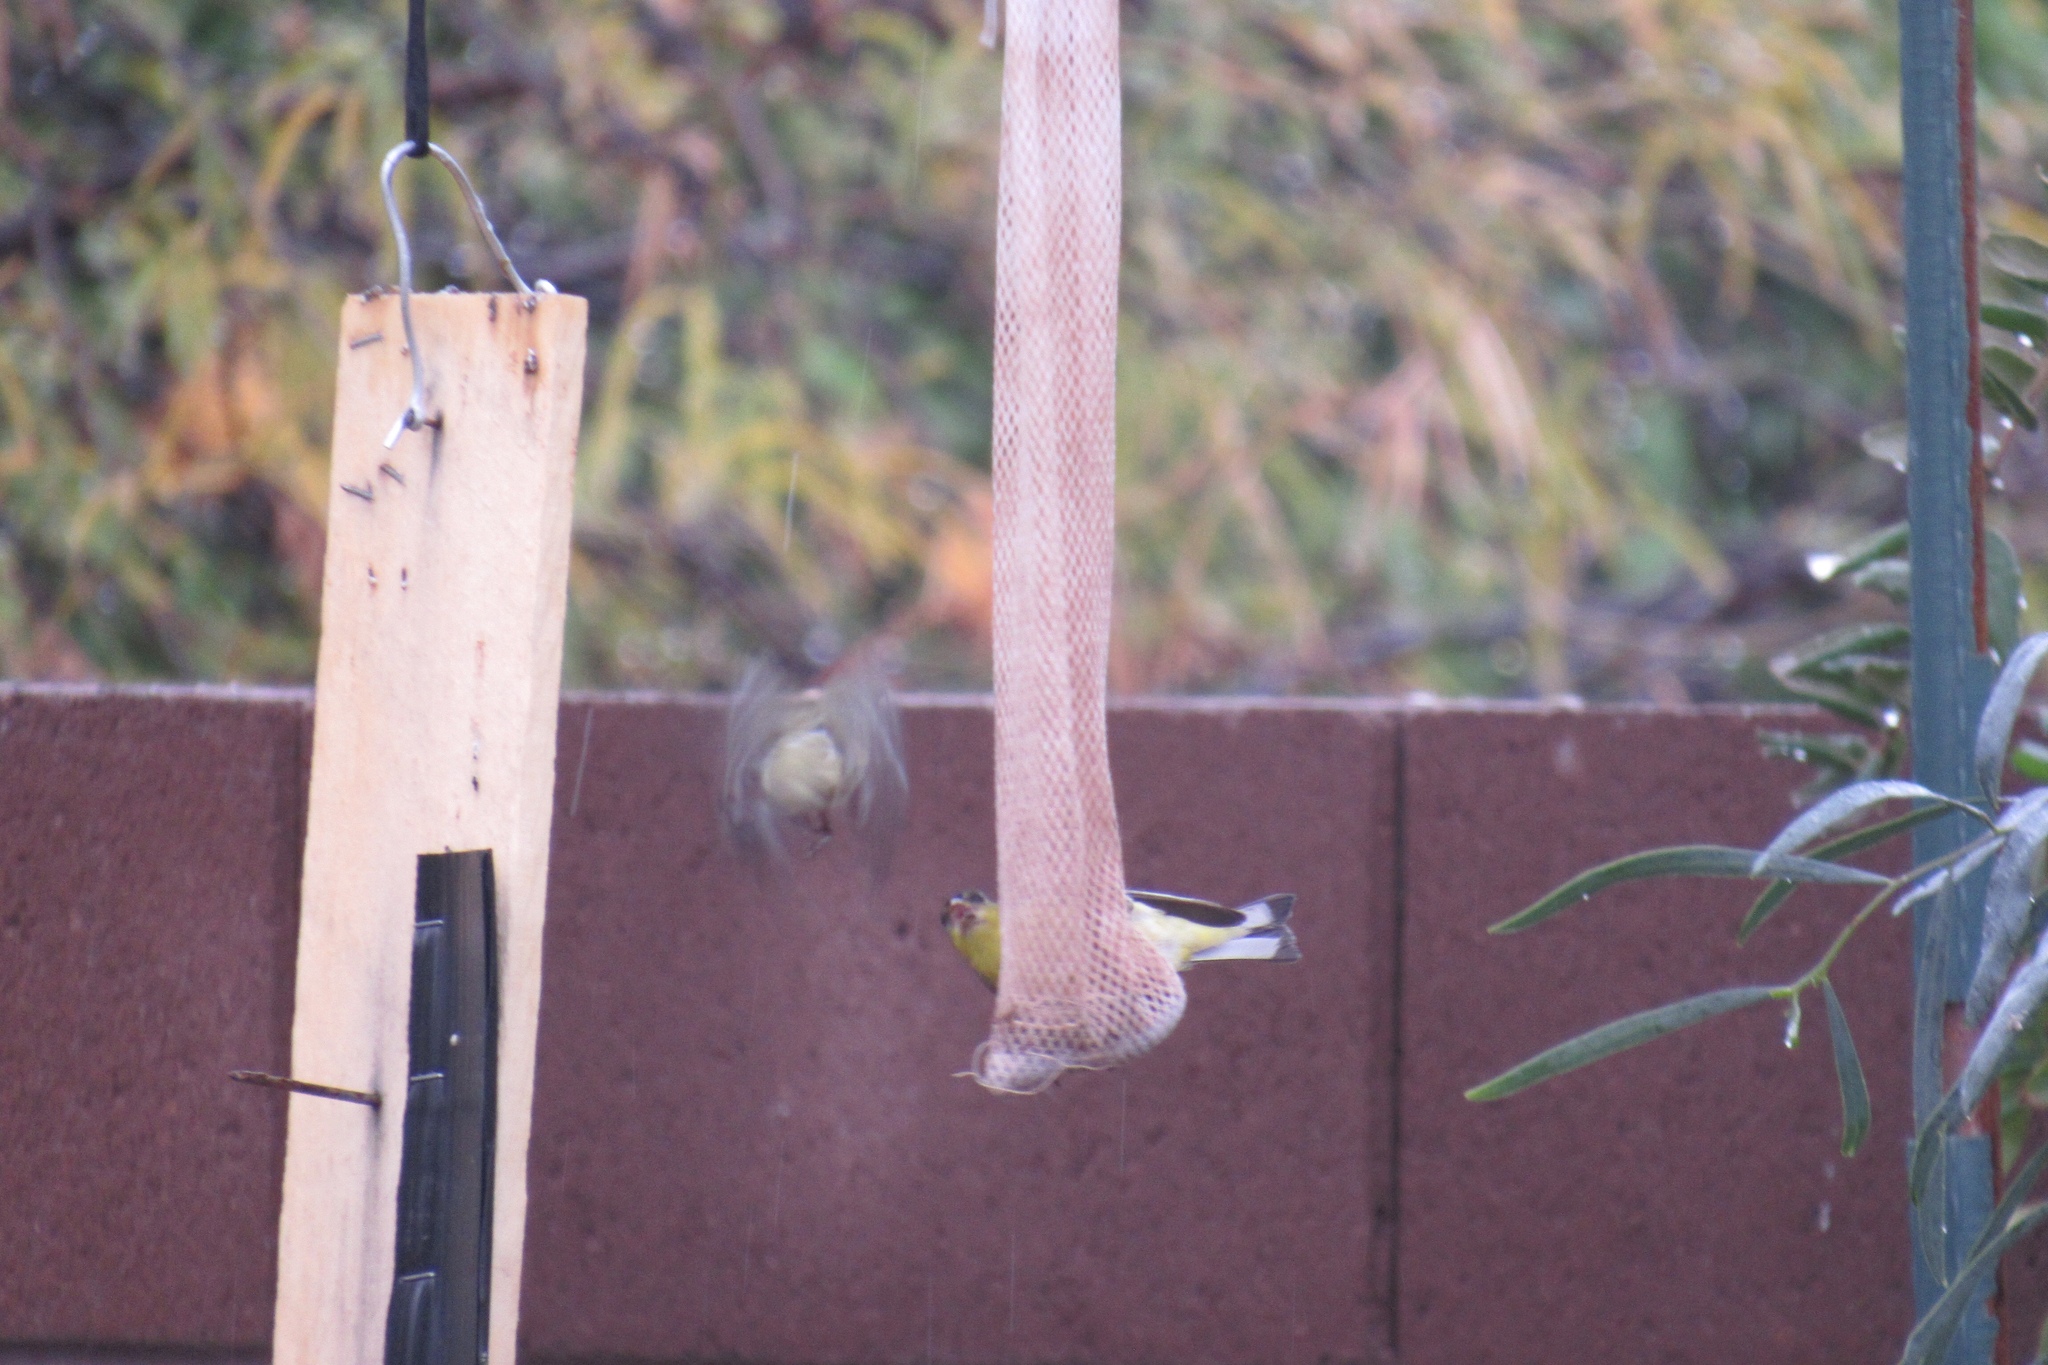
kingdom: Animalia
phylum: Chordata
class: Aves
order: Passeriformes
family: Fringillidae
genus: Spinus
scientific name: Spinus psaltria
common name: Lesser goldfinch
